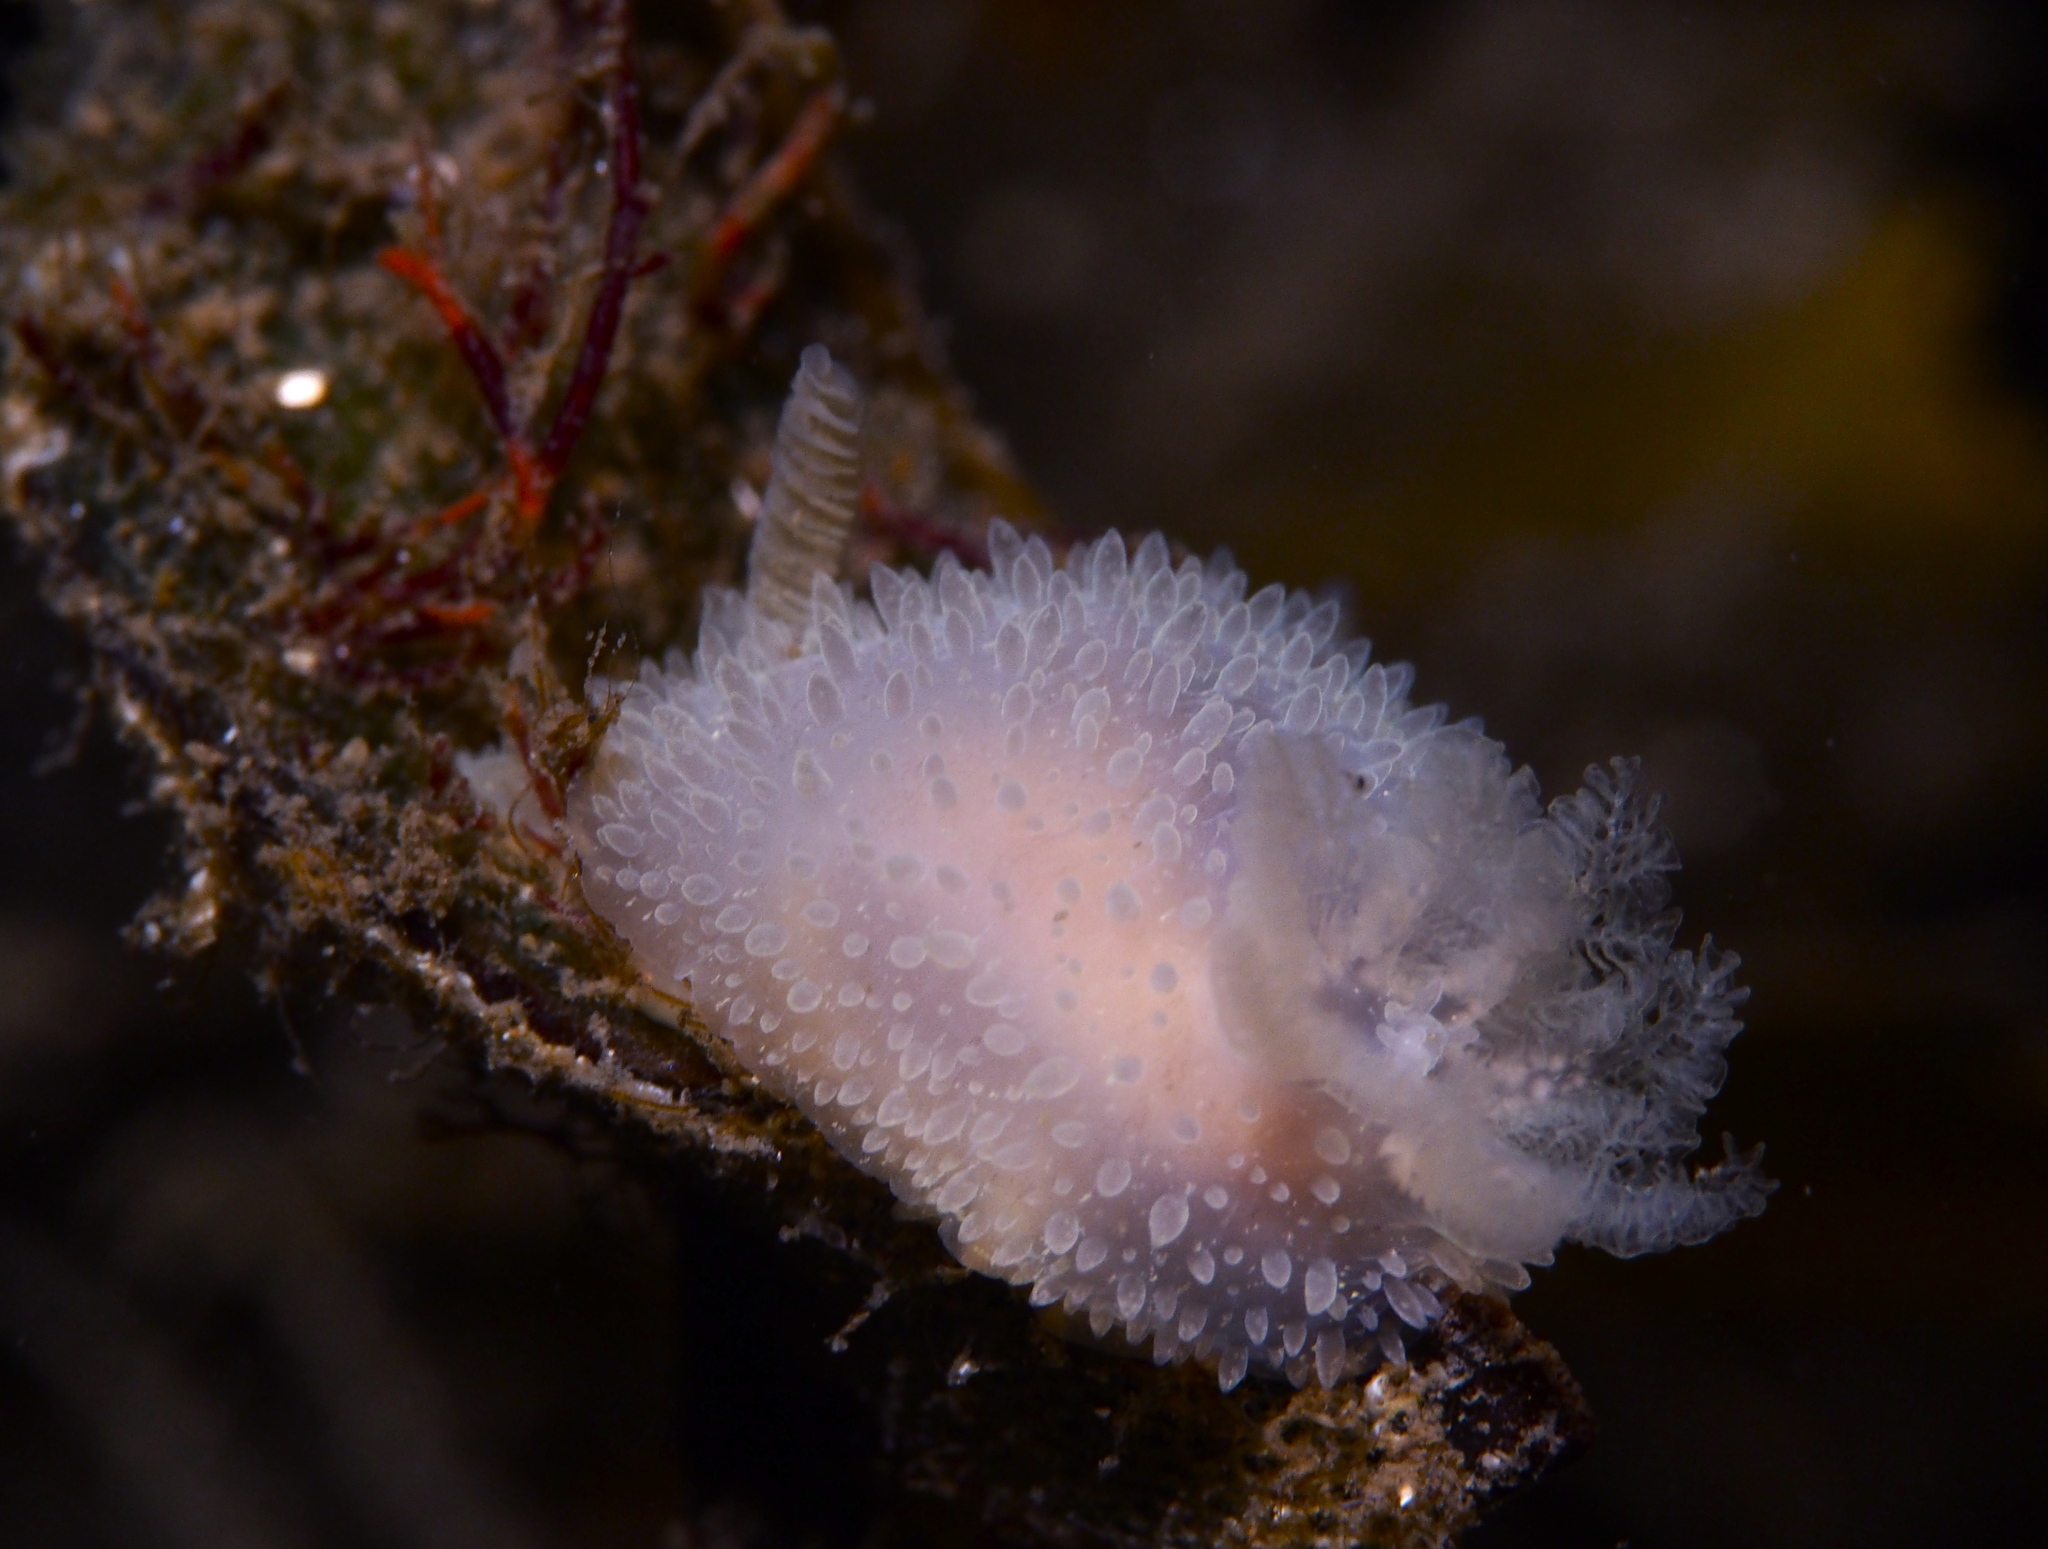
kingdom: Animalia
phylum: Mollusca
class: Gastropoda
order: Nudibranchia
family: Onchidorididae
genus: Acanthodoris
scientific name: Acanthodoris pilosa
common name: Hairy spiny doris
